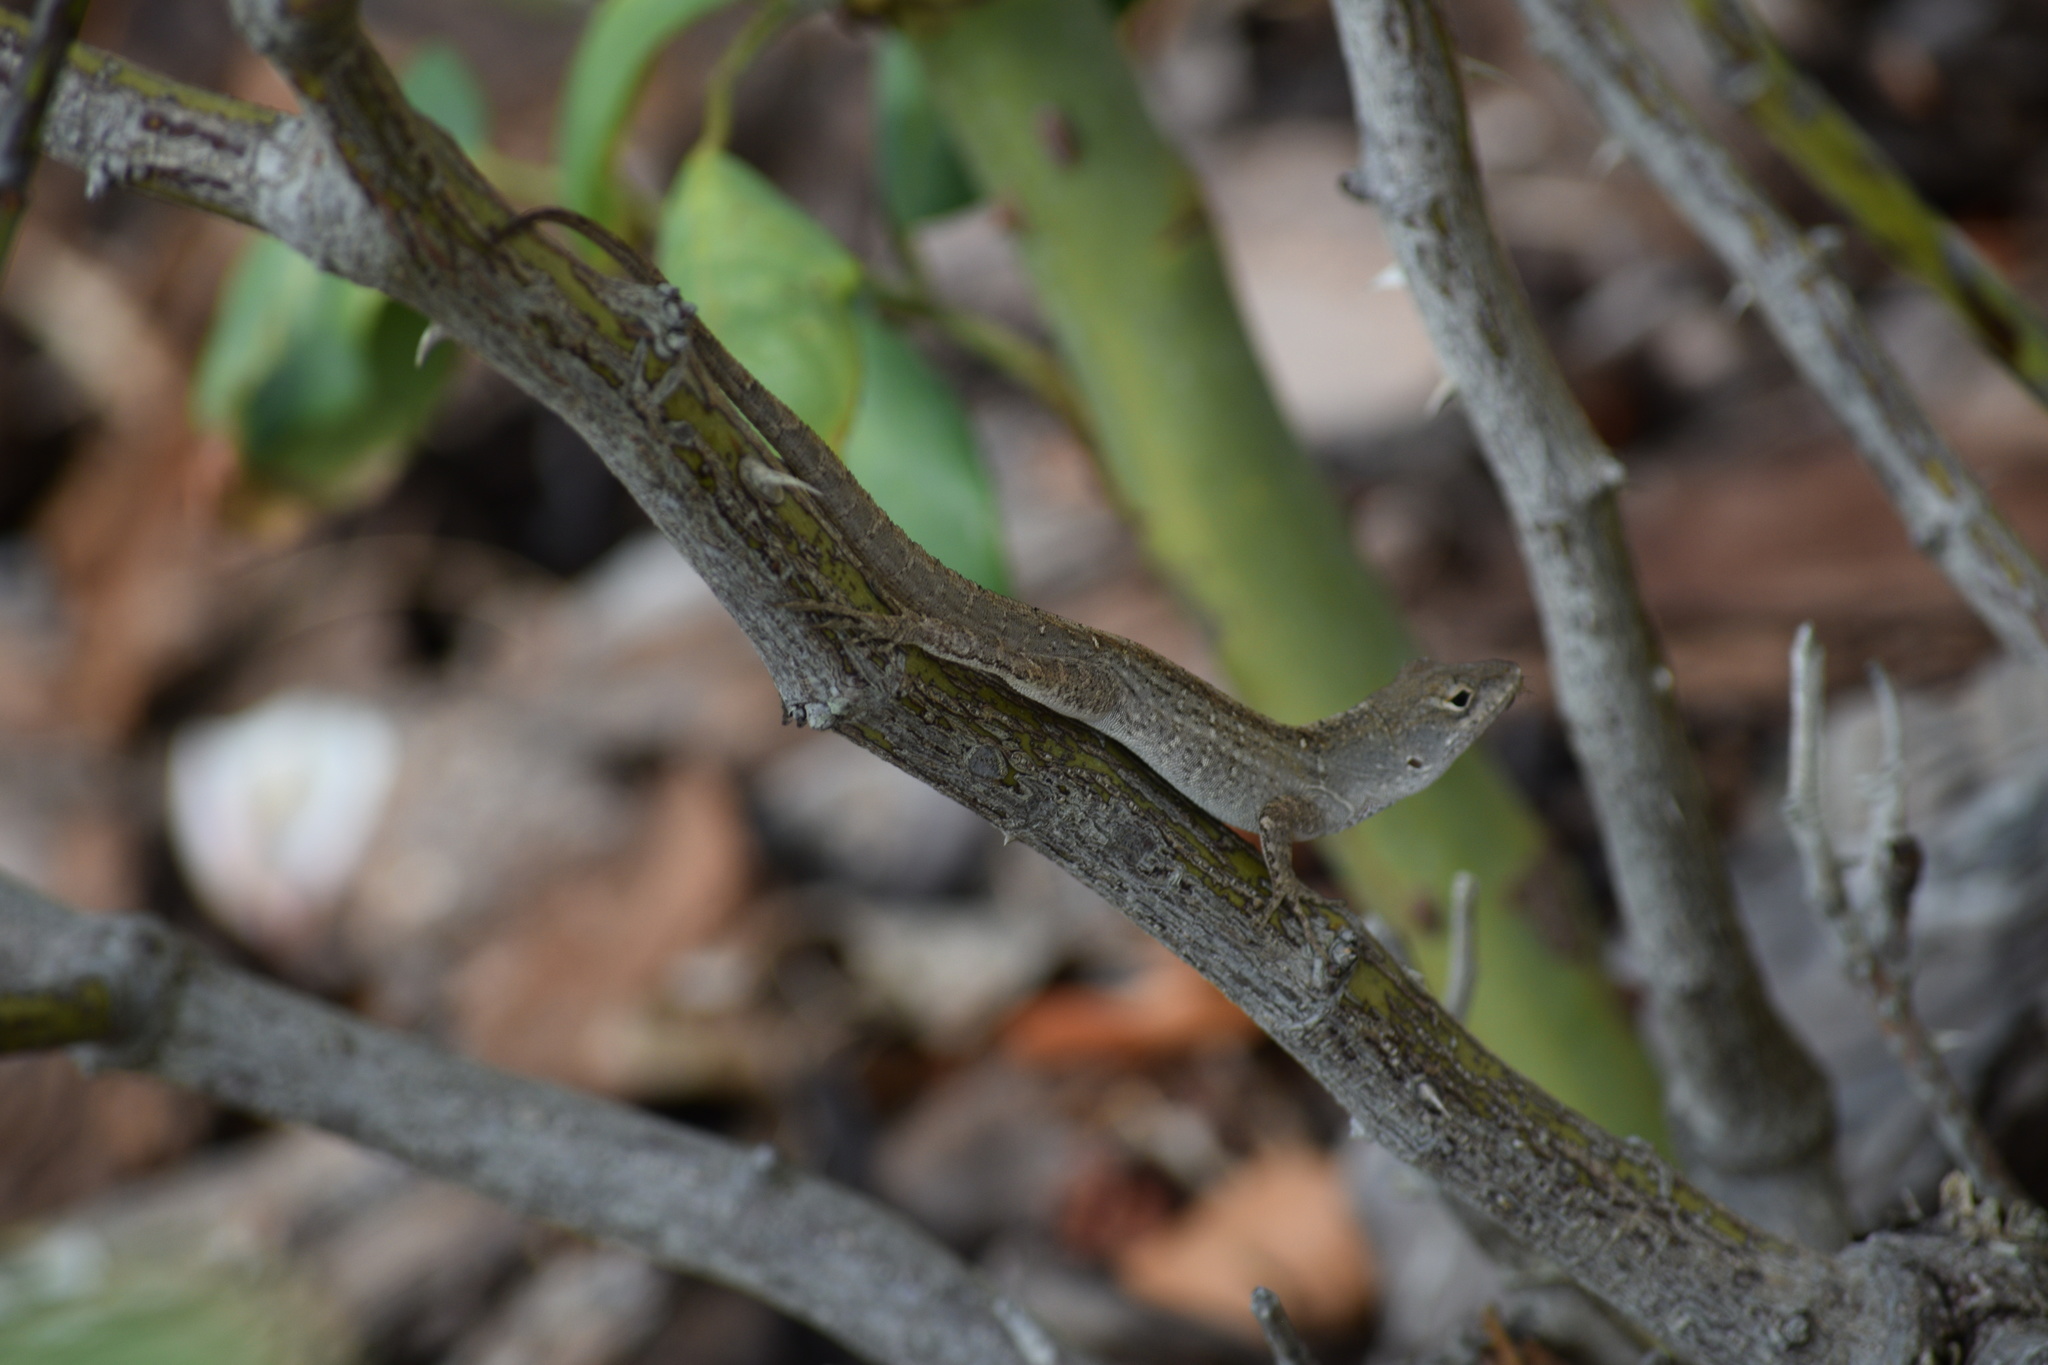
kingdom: Animalia
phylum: Chordata
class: Squamata
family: Dactyloidae
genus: Anolis
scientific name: Anolis sagrei
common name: Brown anole
